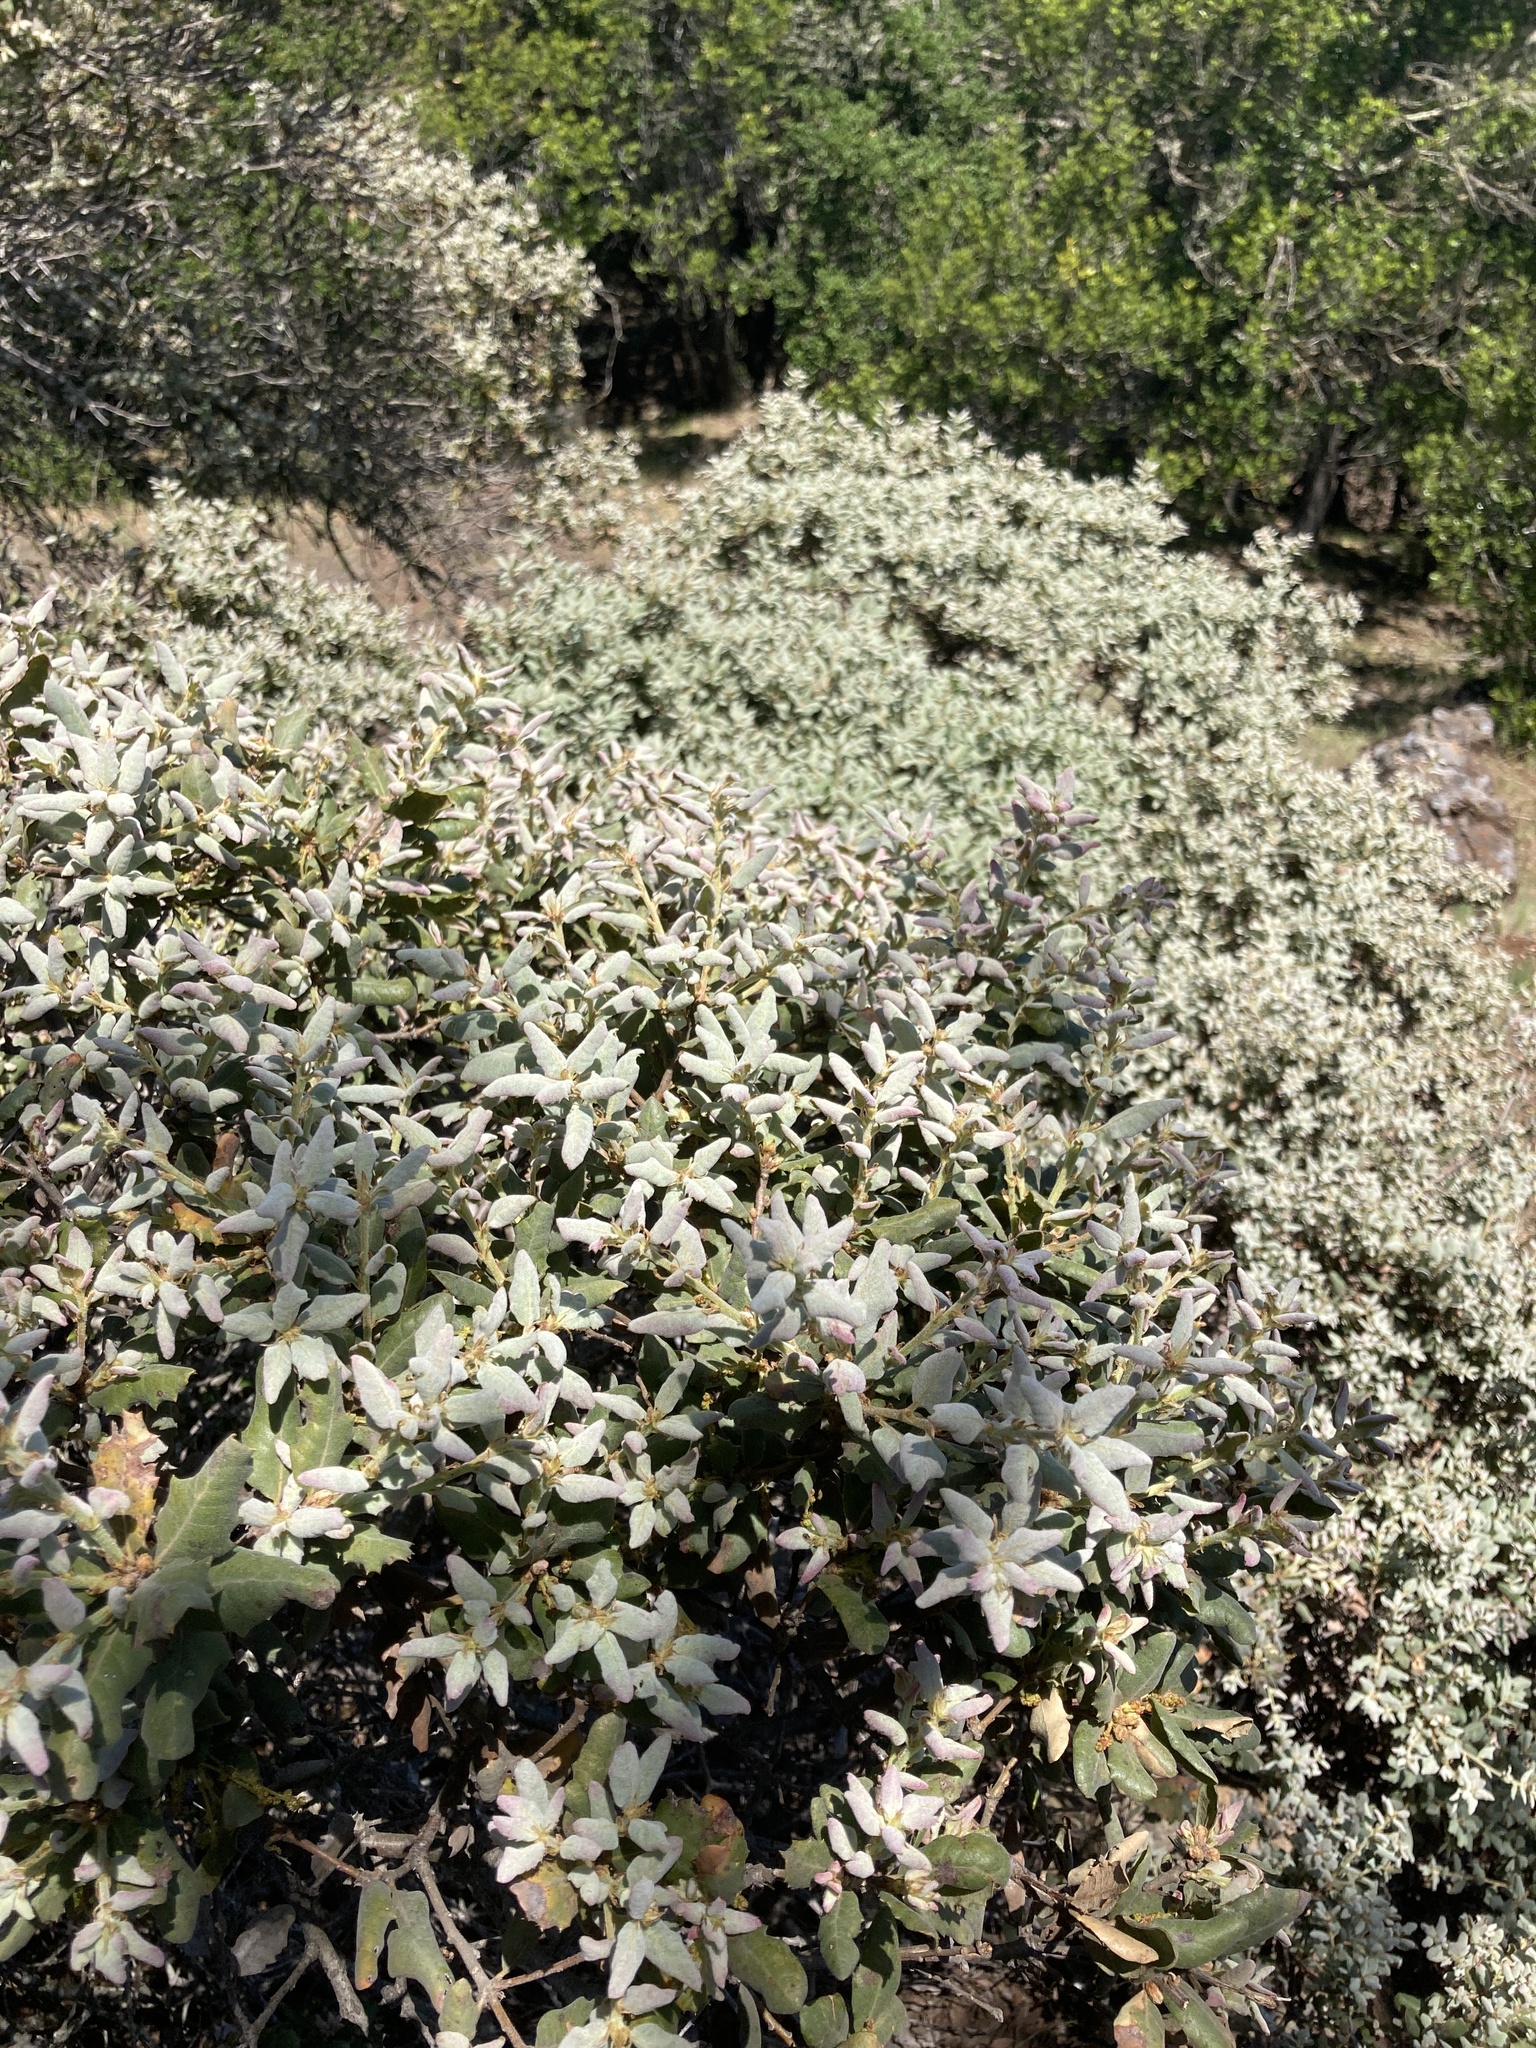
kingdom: Plantae
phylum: Tracheophyta
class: Magnoliopsida
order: Fagales
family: Fagaceae
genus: Quercus
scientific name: Quercus durata
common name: Leather oak
